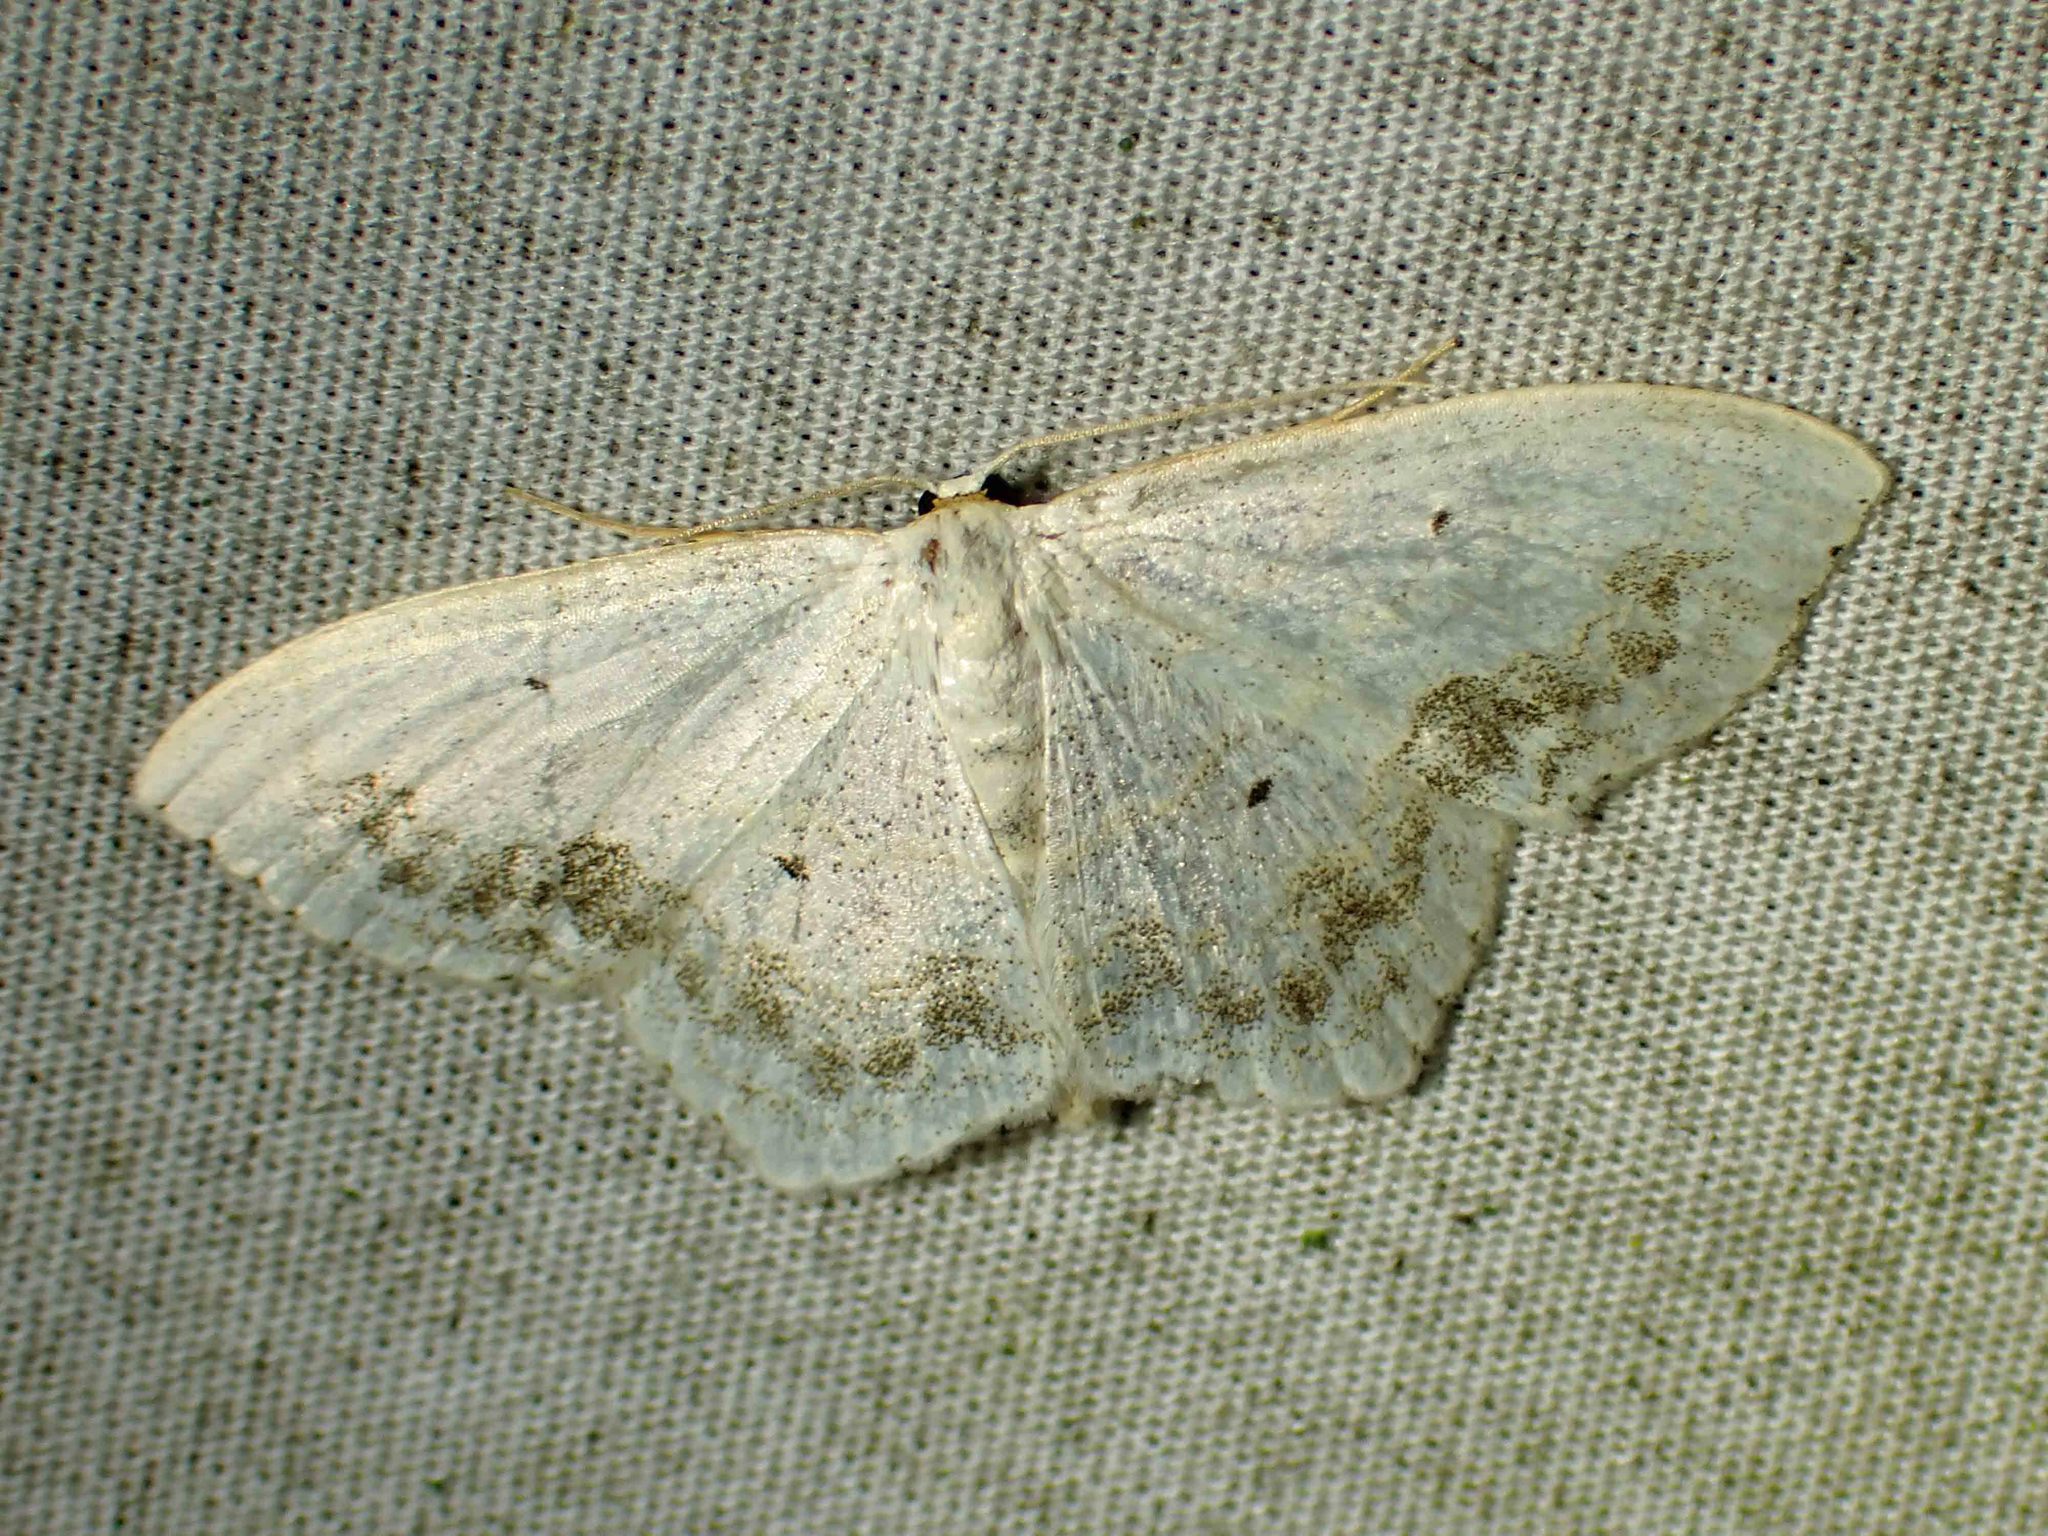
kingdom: Animalia
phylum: Arthropoda
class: Insecta
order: Lepidoptera
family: Geometridae
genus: Scopula
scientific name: Scopula limboundata
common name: Large lace border
